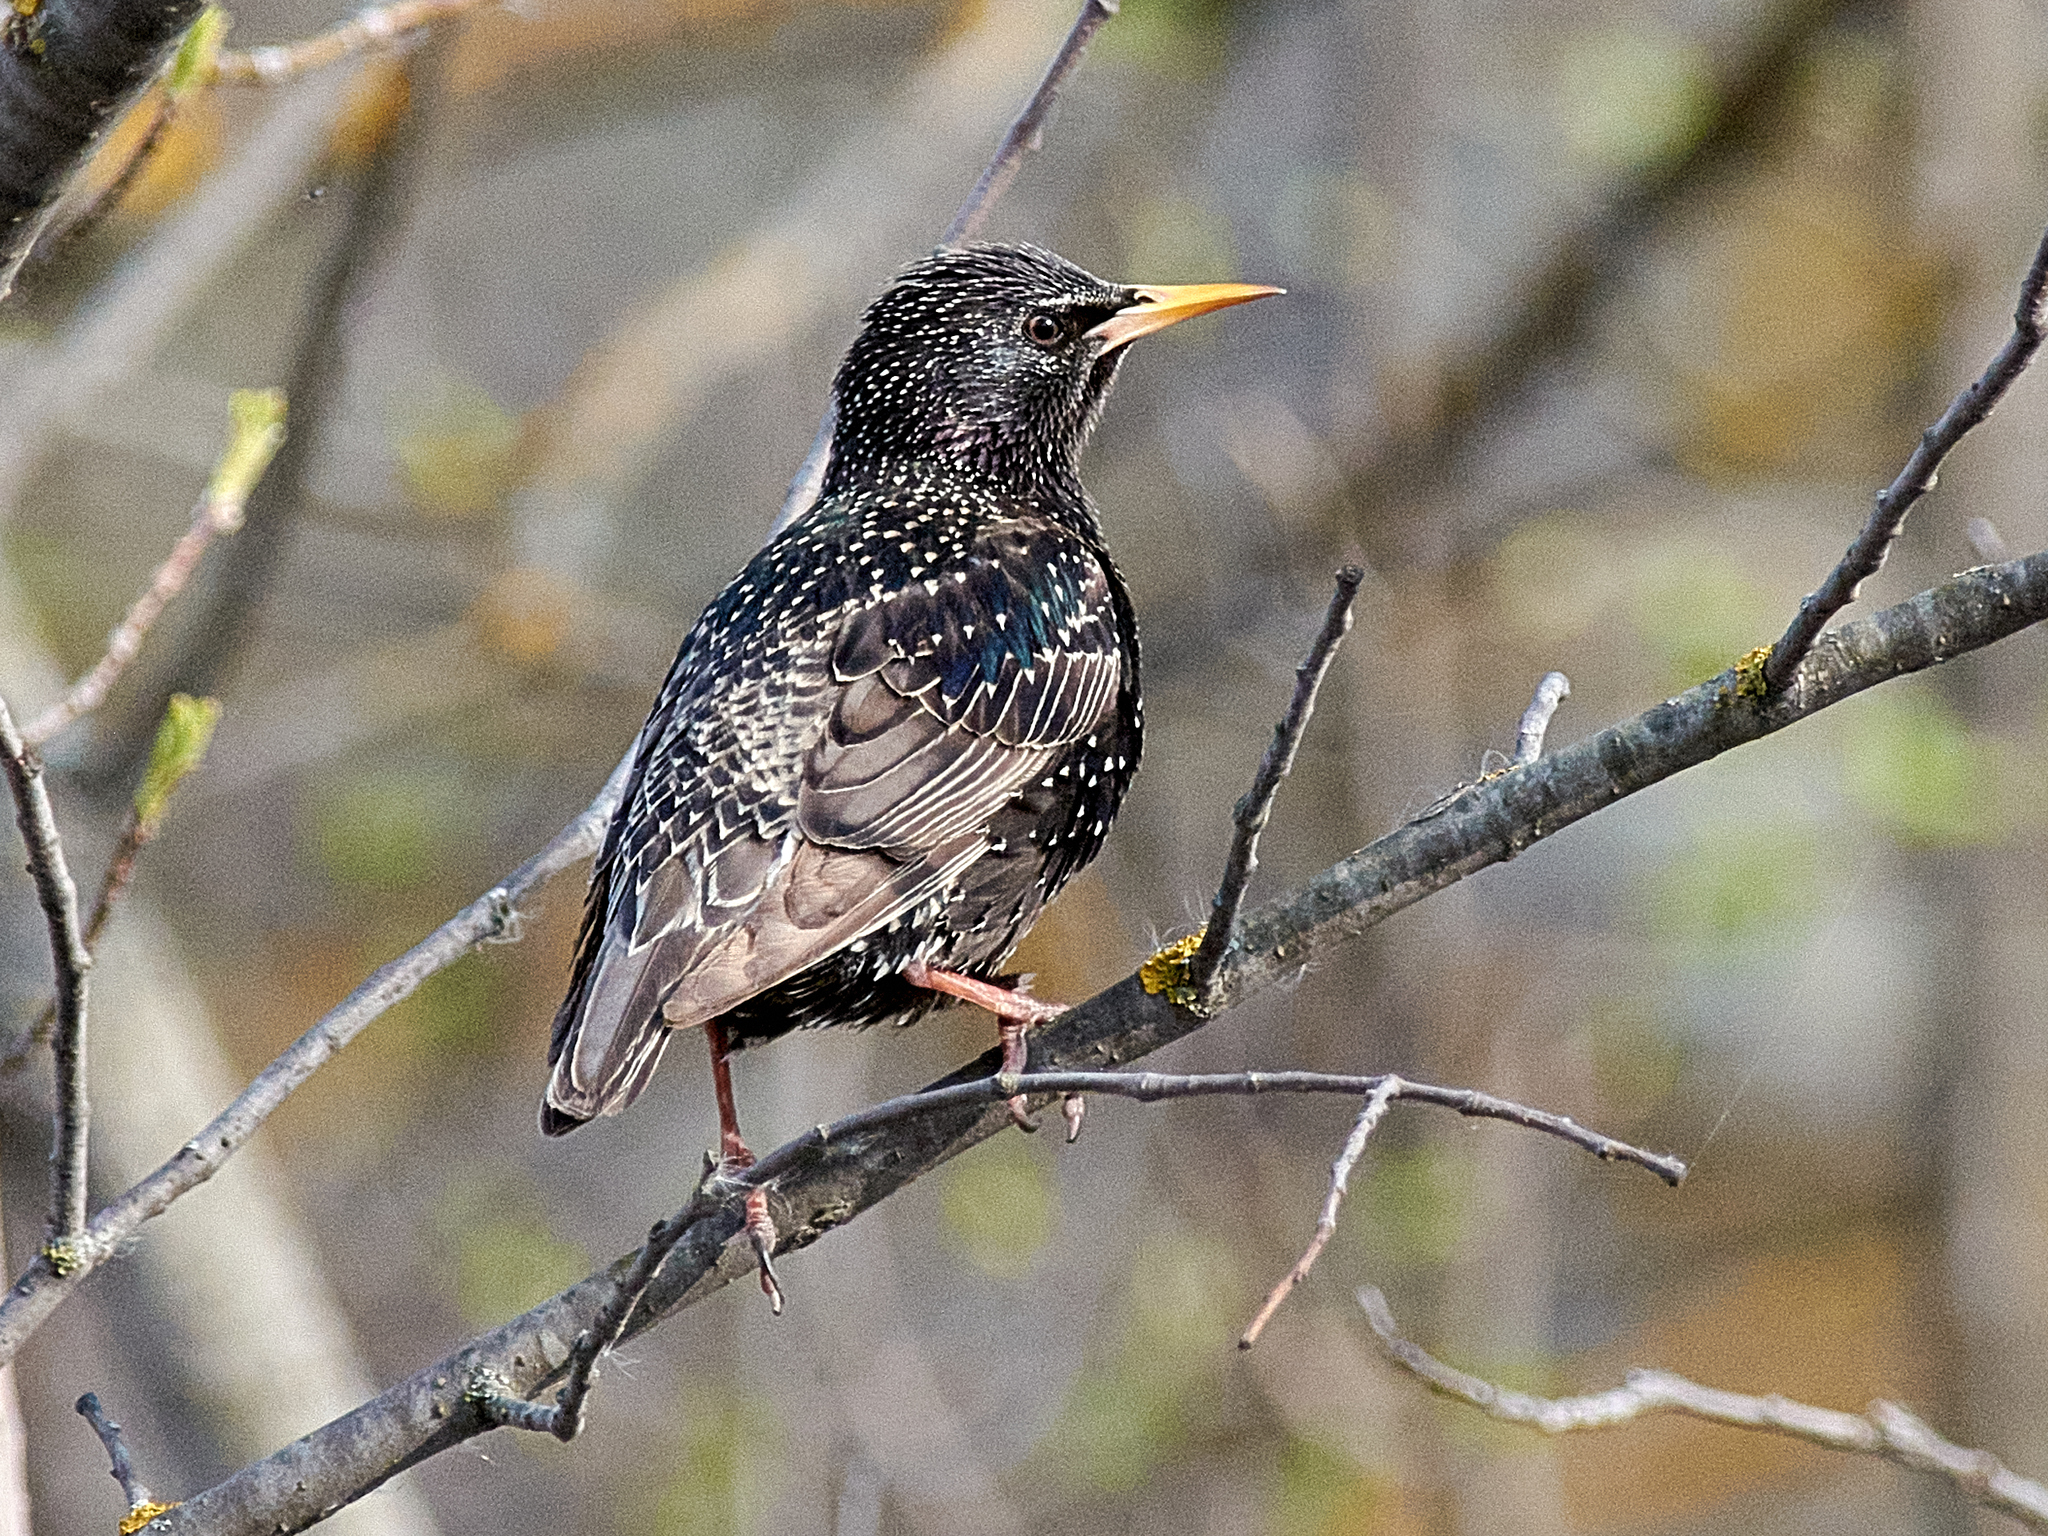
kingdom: Animalia
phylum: Chordata
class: Aves
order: Passeriformes
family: Sturnidae
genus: Sturnus
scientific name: Sturnus vulgaris
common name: Common starling
